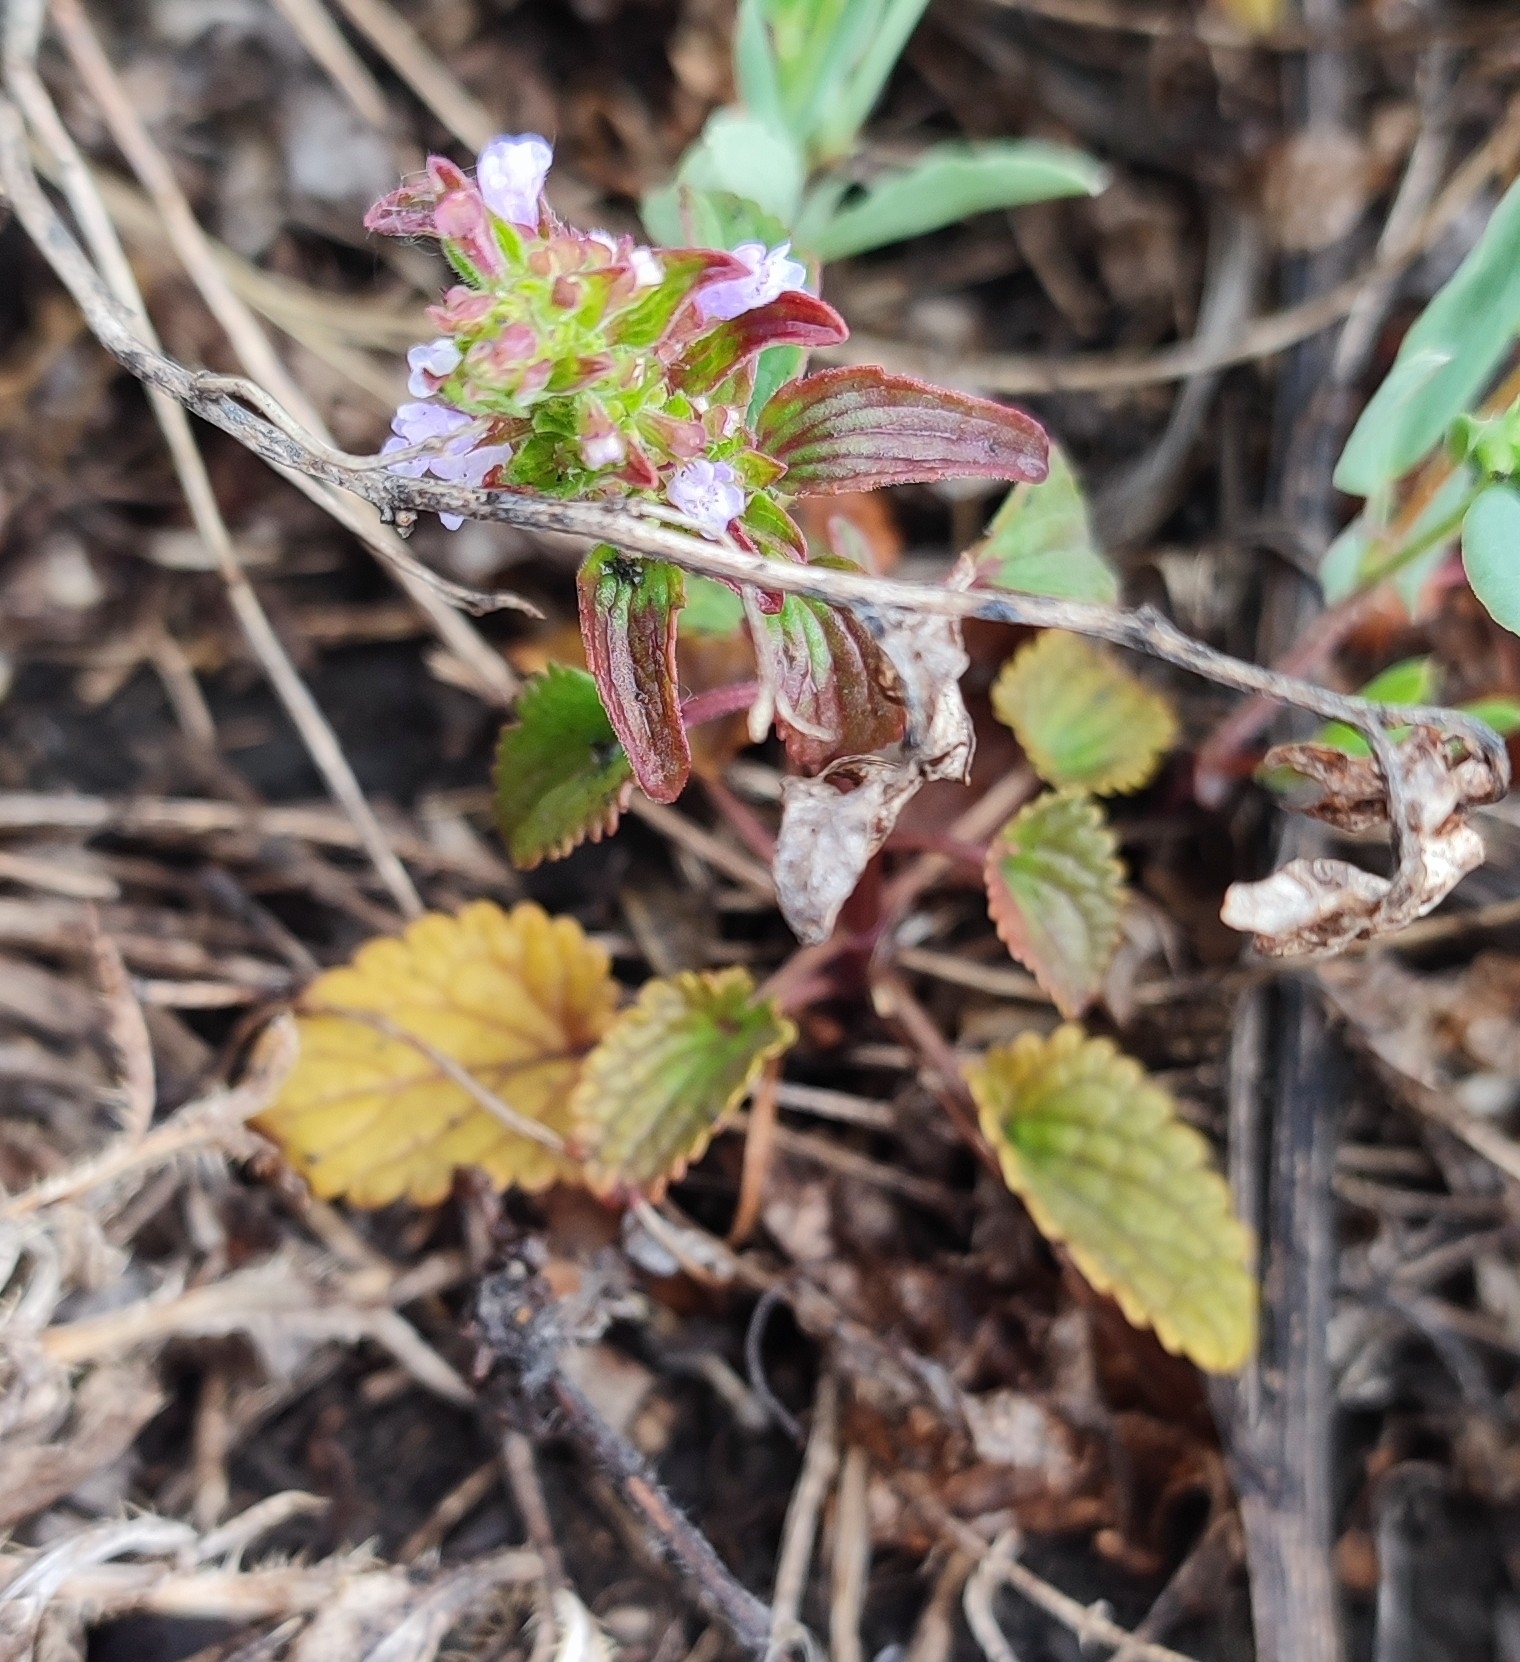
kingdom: Plantae
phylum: Tracheophyta
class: Magnoliopsida
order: Lamiales
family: Lamiaceae
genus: Dracocephalum
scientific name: Dracocephalum thymiflorum
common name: Thymeleaf dragonhead
